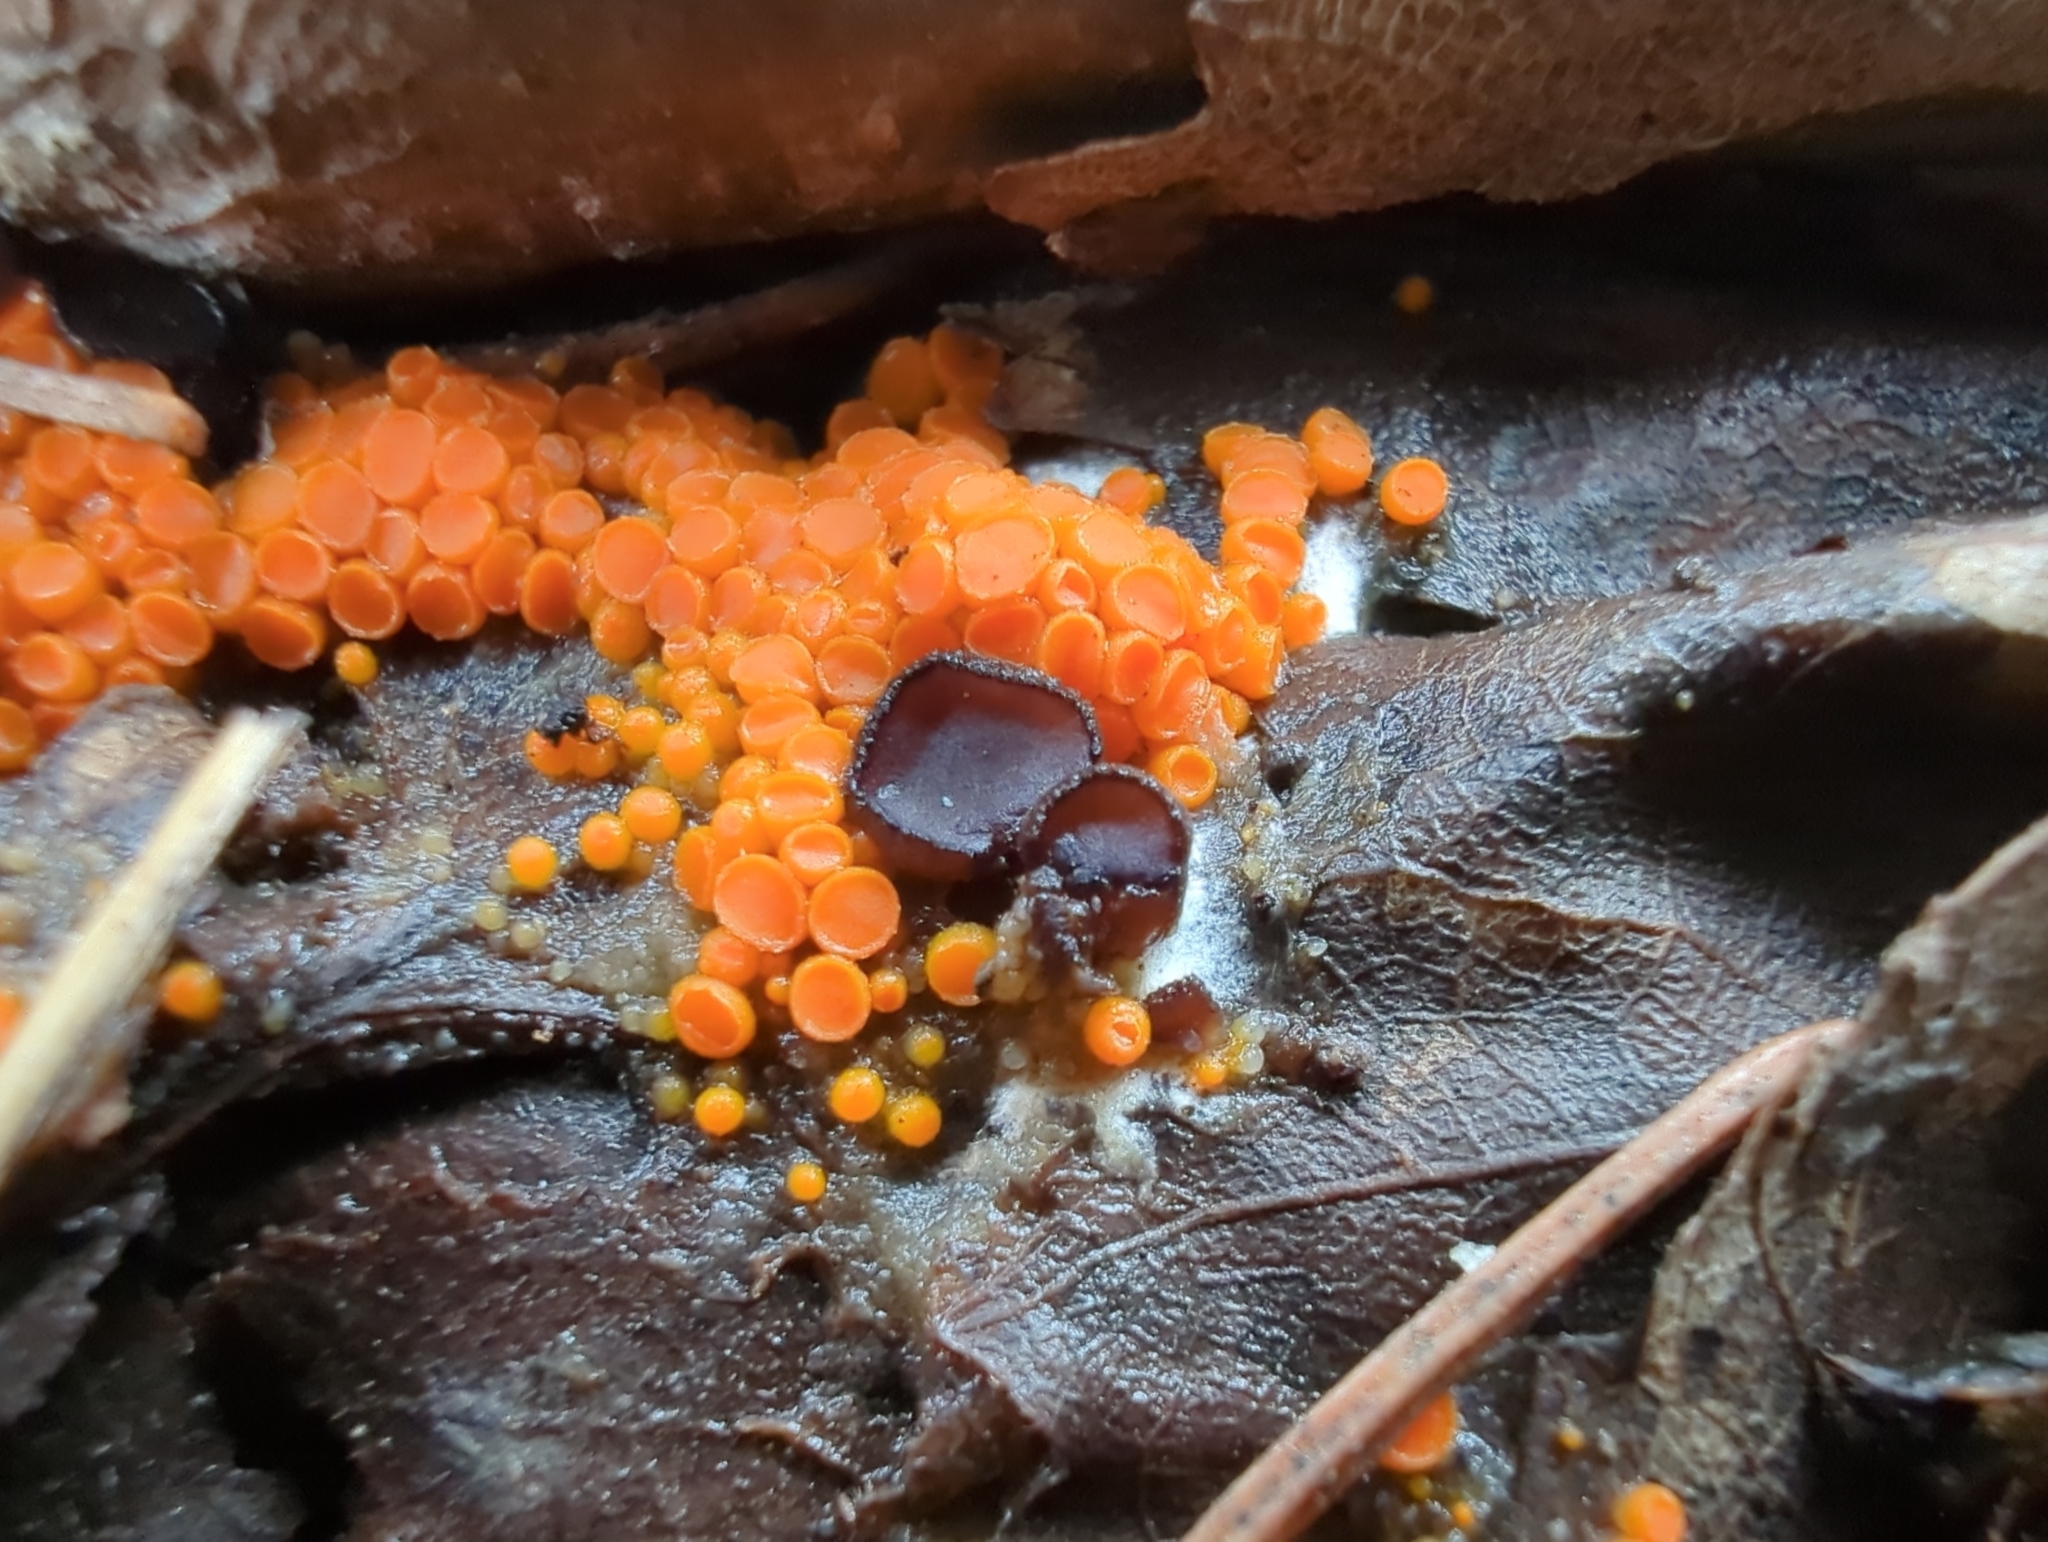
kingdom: Fungi
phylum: Ascomycota
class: Pezizomycetes
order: Pezizales
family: Pseudombrophilaceae
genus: Pseudombrophila
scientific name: Pseudombrophila guldeniae
